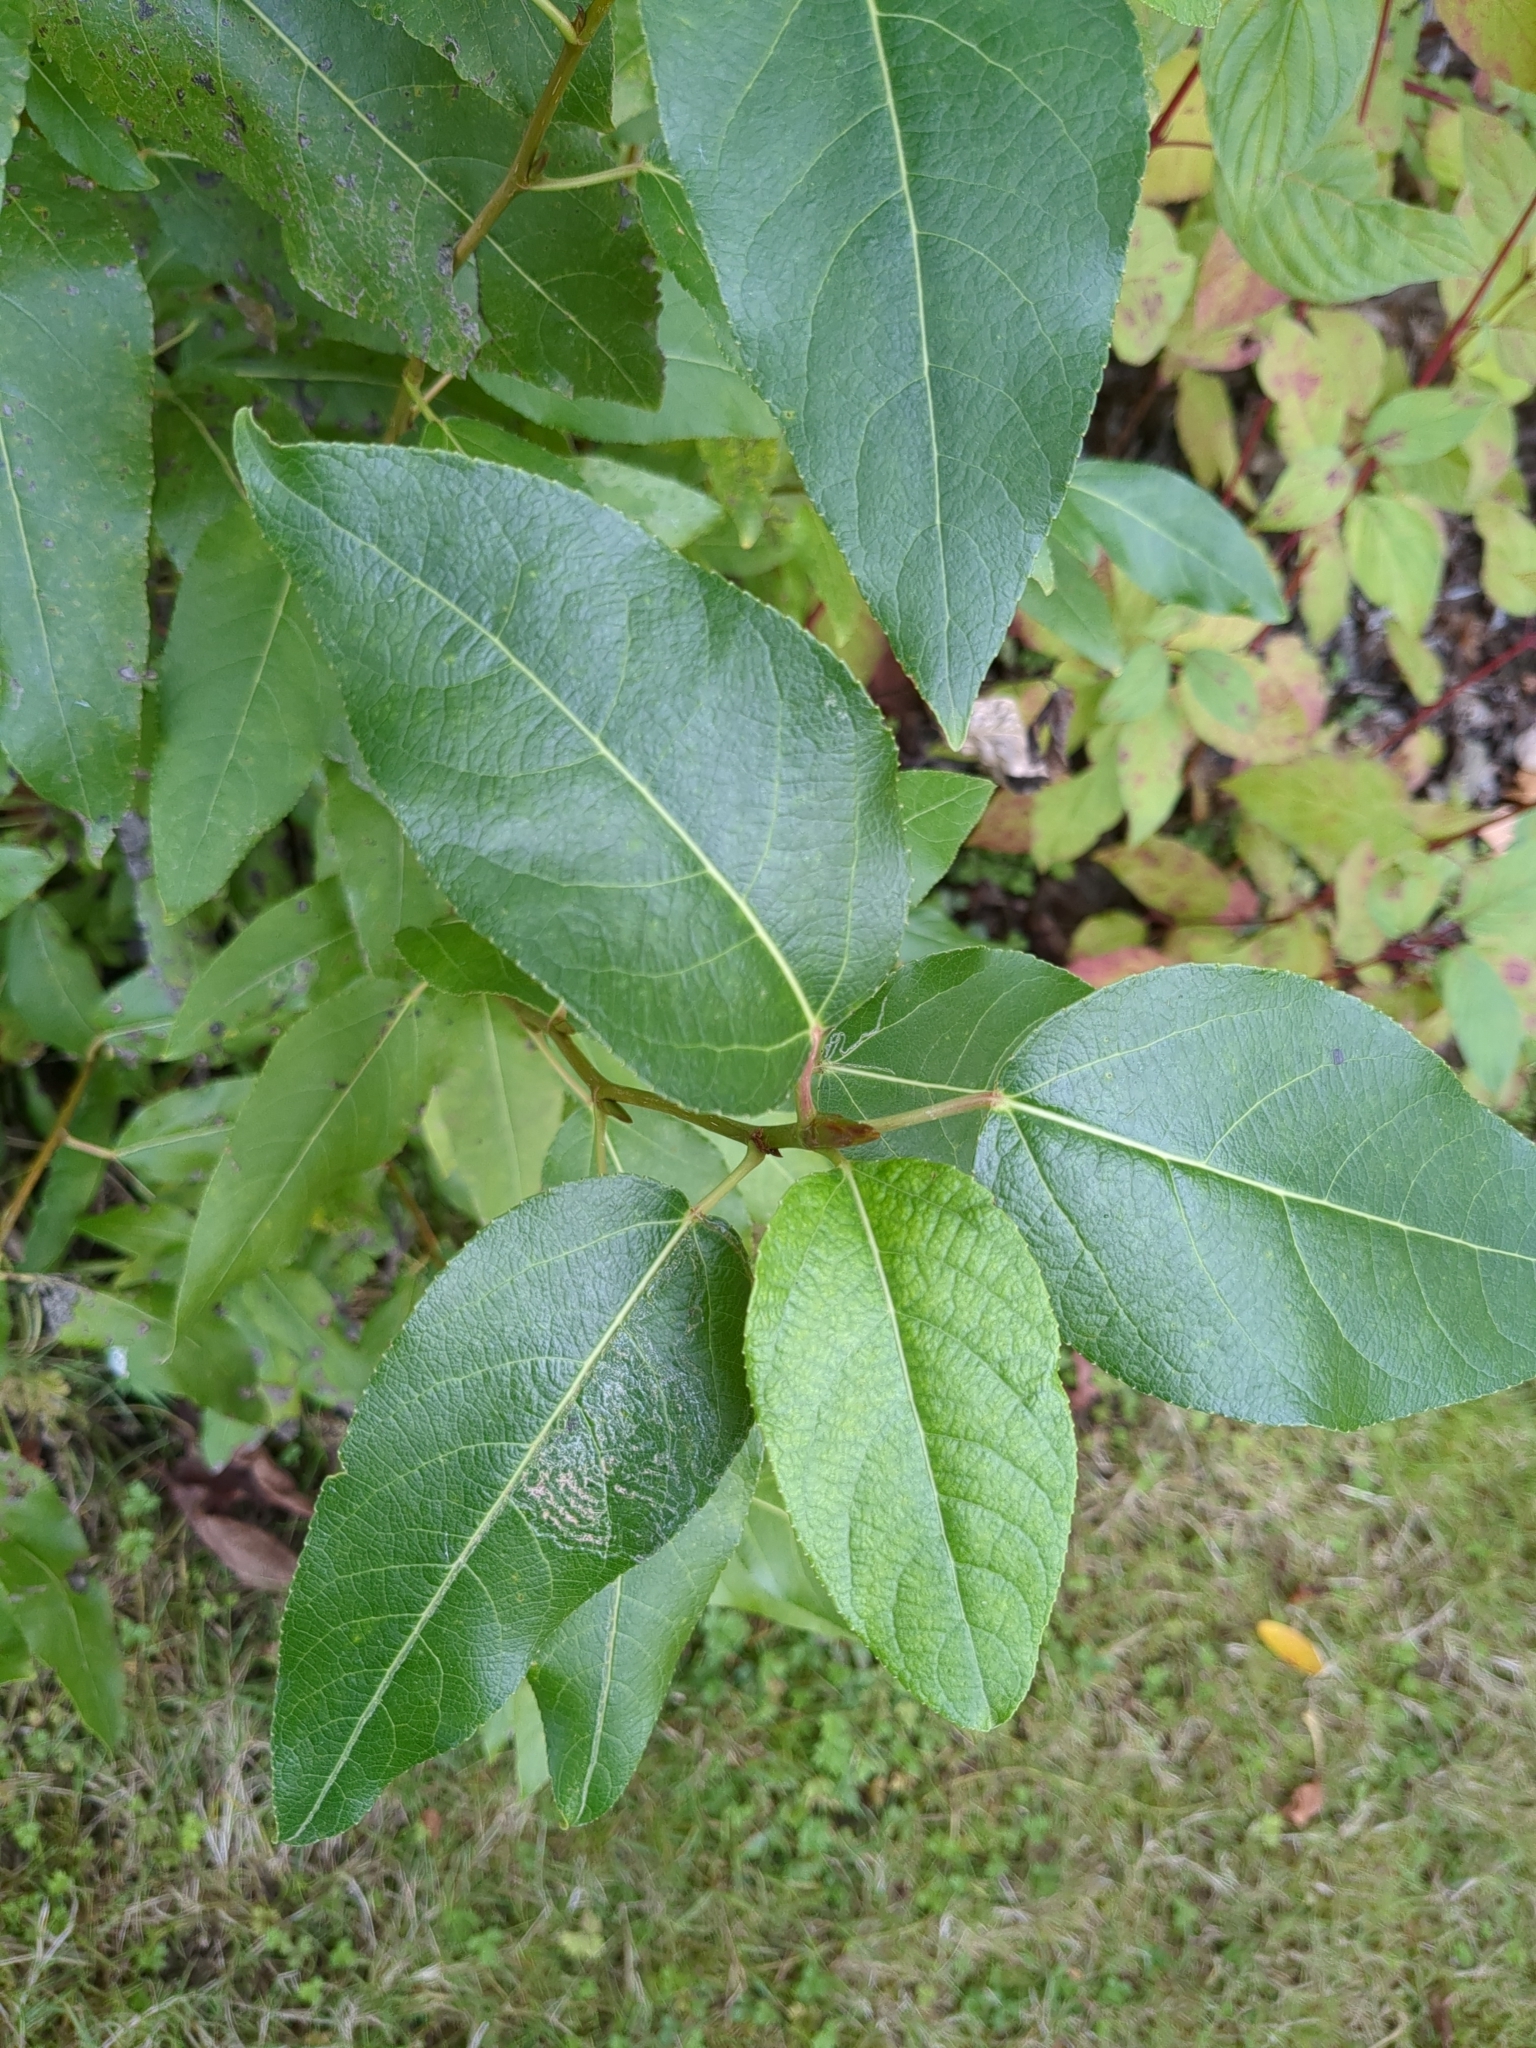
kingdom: Plantae
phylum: Tracheophyta
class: Magnoliopsida
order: Malpighiales
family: Salicaceae
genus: Populus
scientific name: Populus trichocarpa
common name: Black cottonwood
